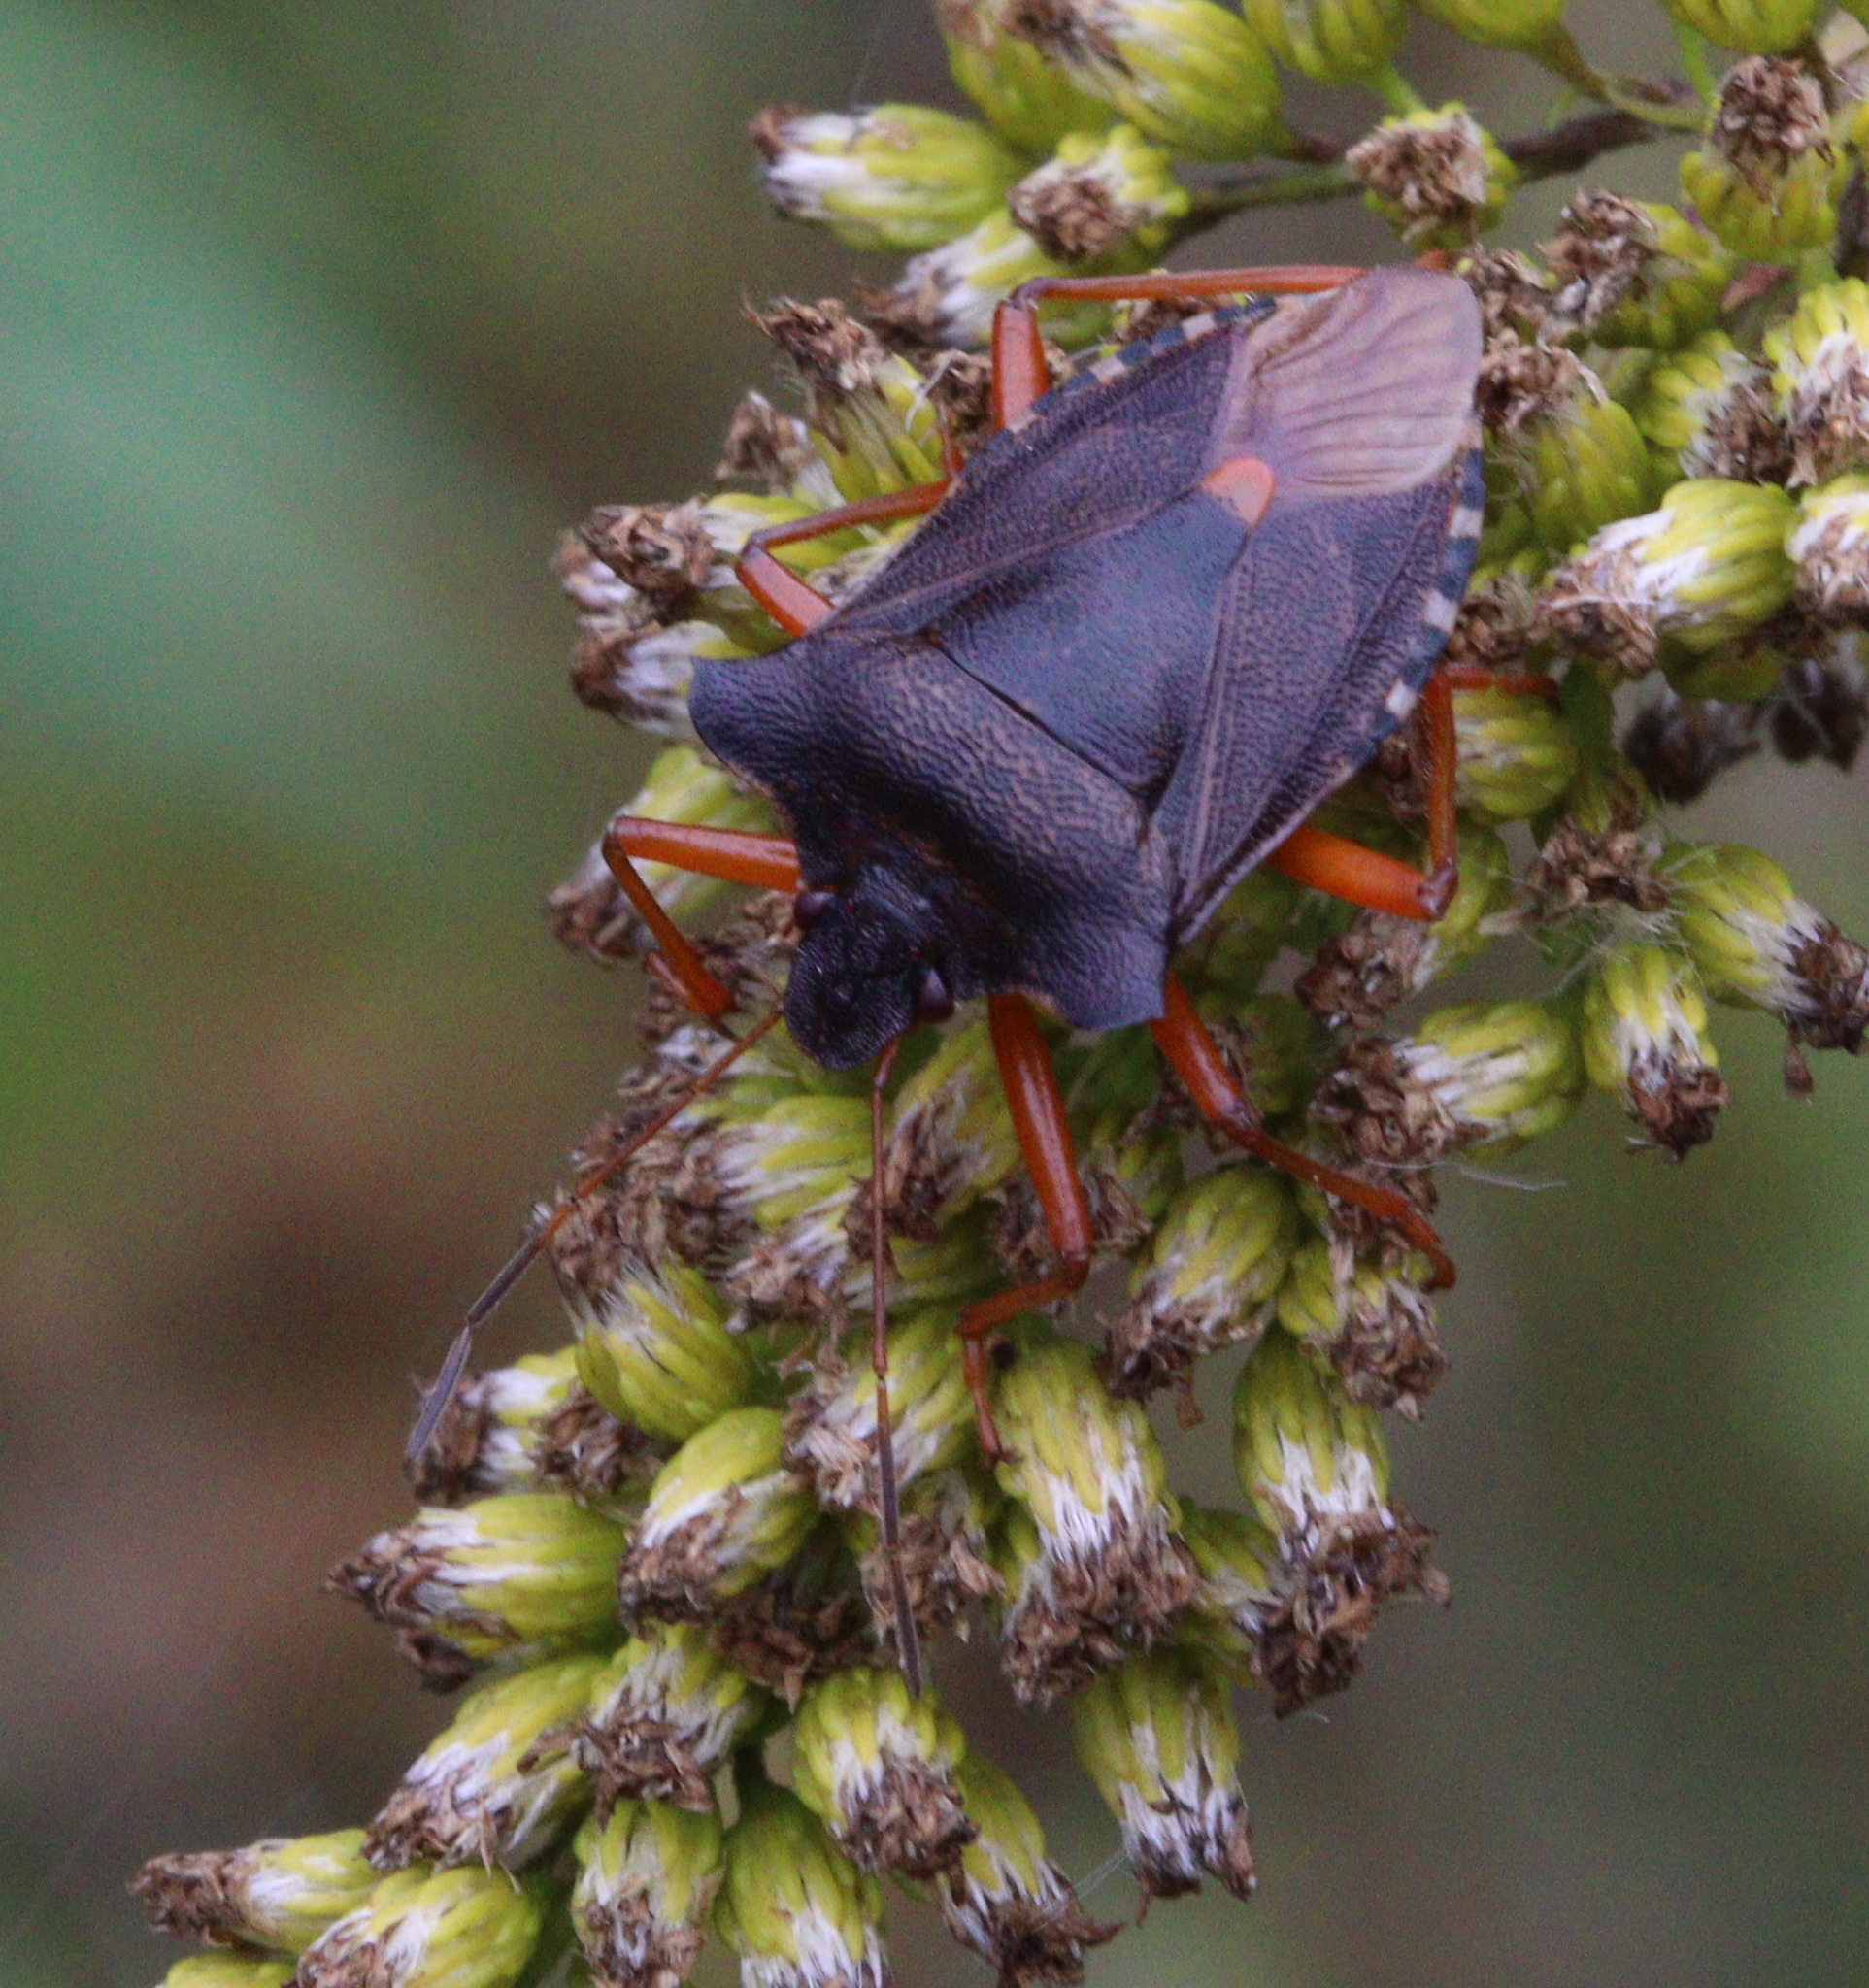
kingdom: Animalia
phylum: Arthropoda
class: Insecta
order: Hemiptera
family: Pentatomidae
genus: Pentatoma
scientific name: Pentatoma rufipes
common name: Forest bug
